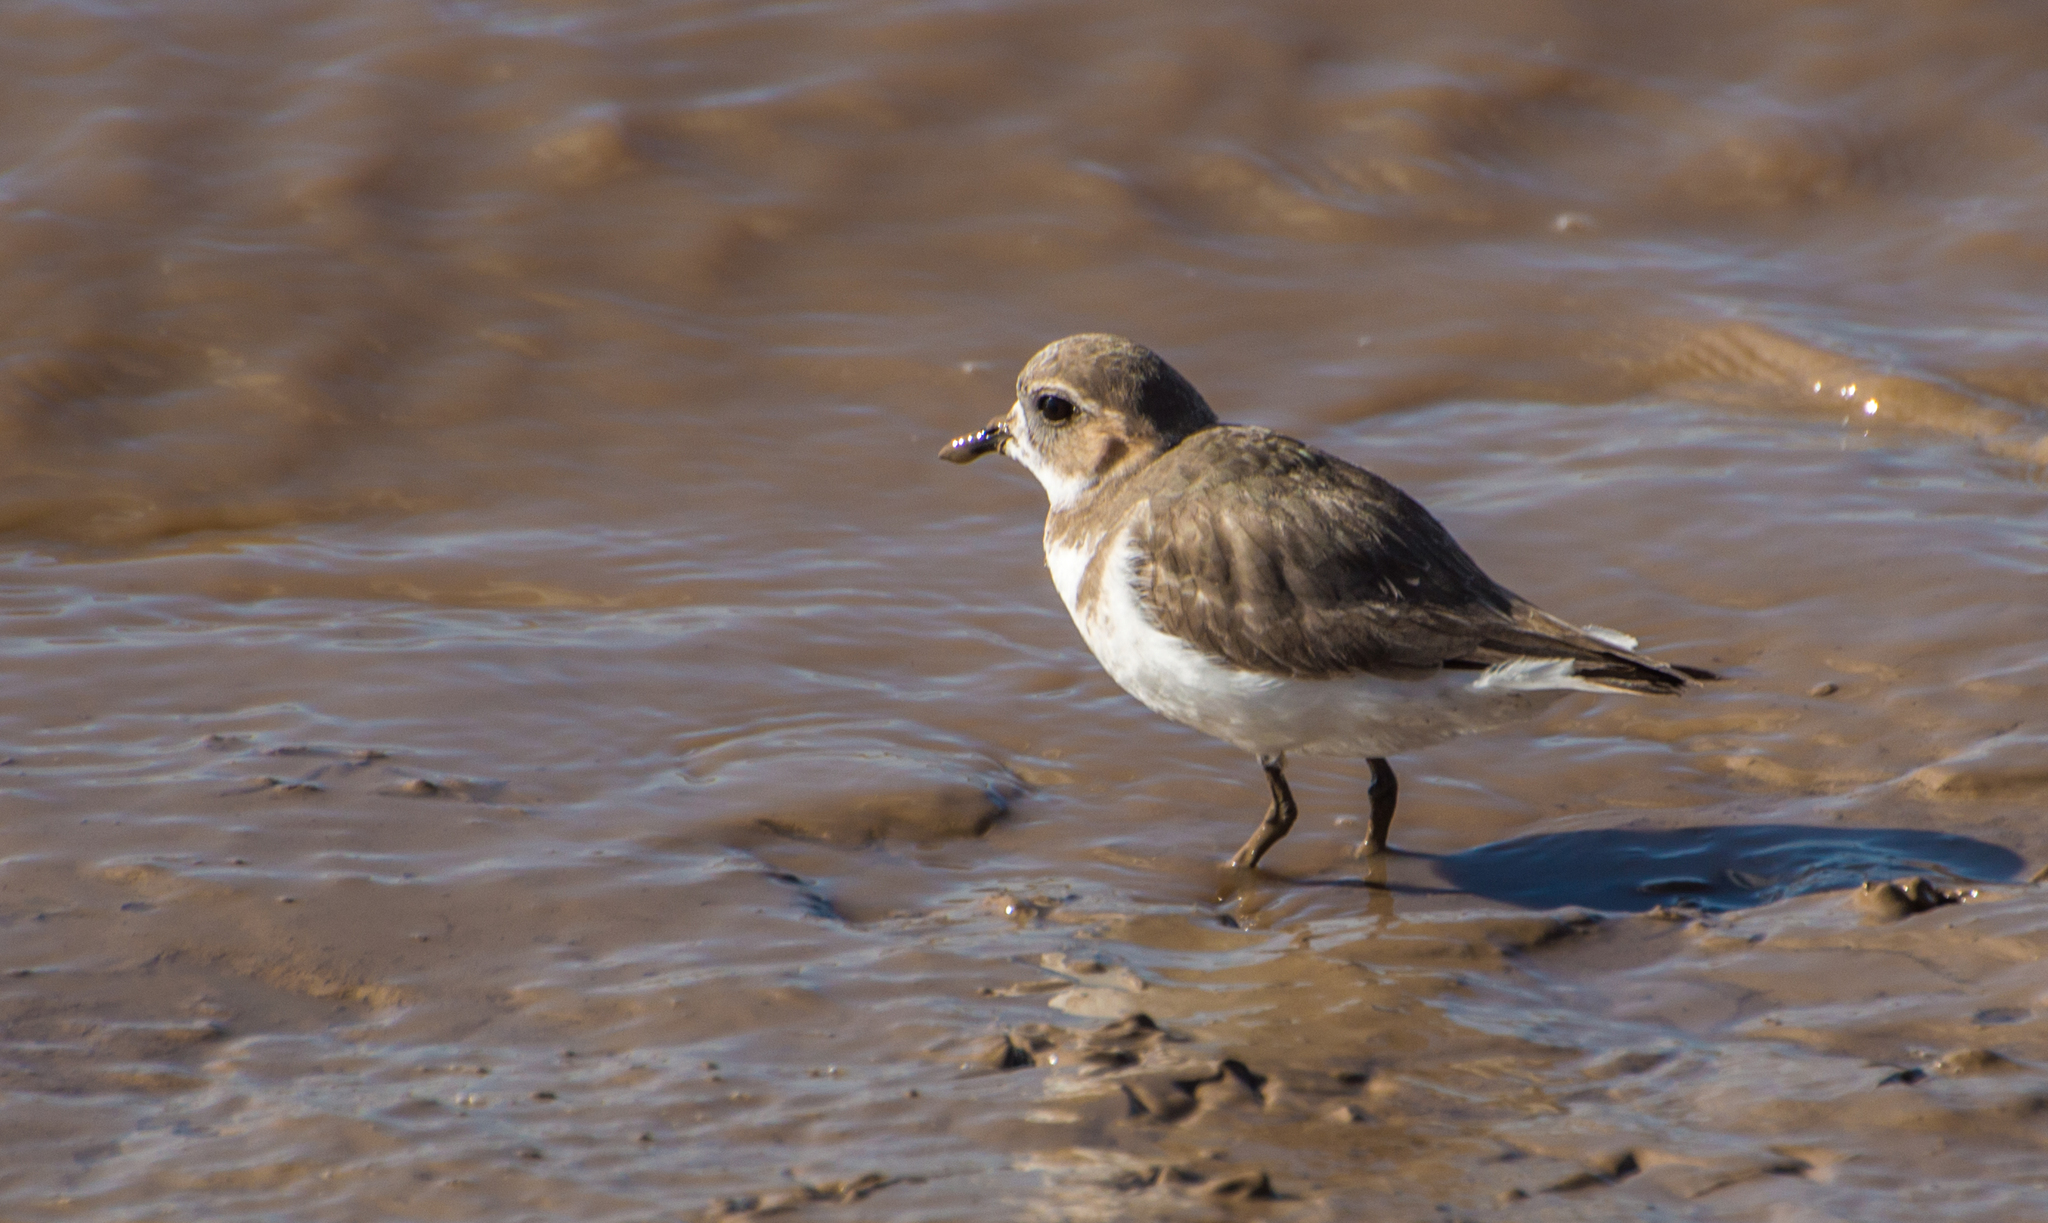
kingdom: Animalia
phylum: Chordata
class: Aves
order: Charadriiformes
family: Charadriidae
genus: Anarhynchus
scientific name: Anarhynchus
